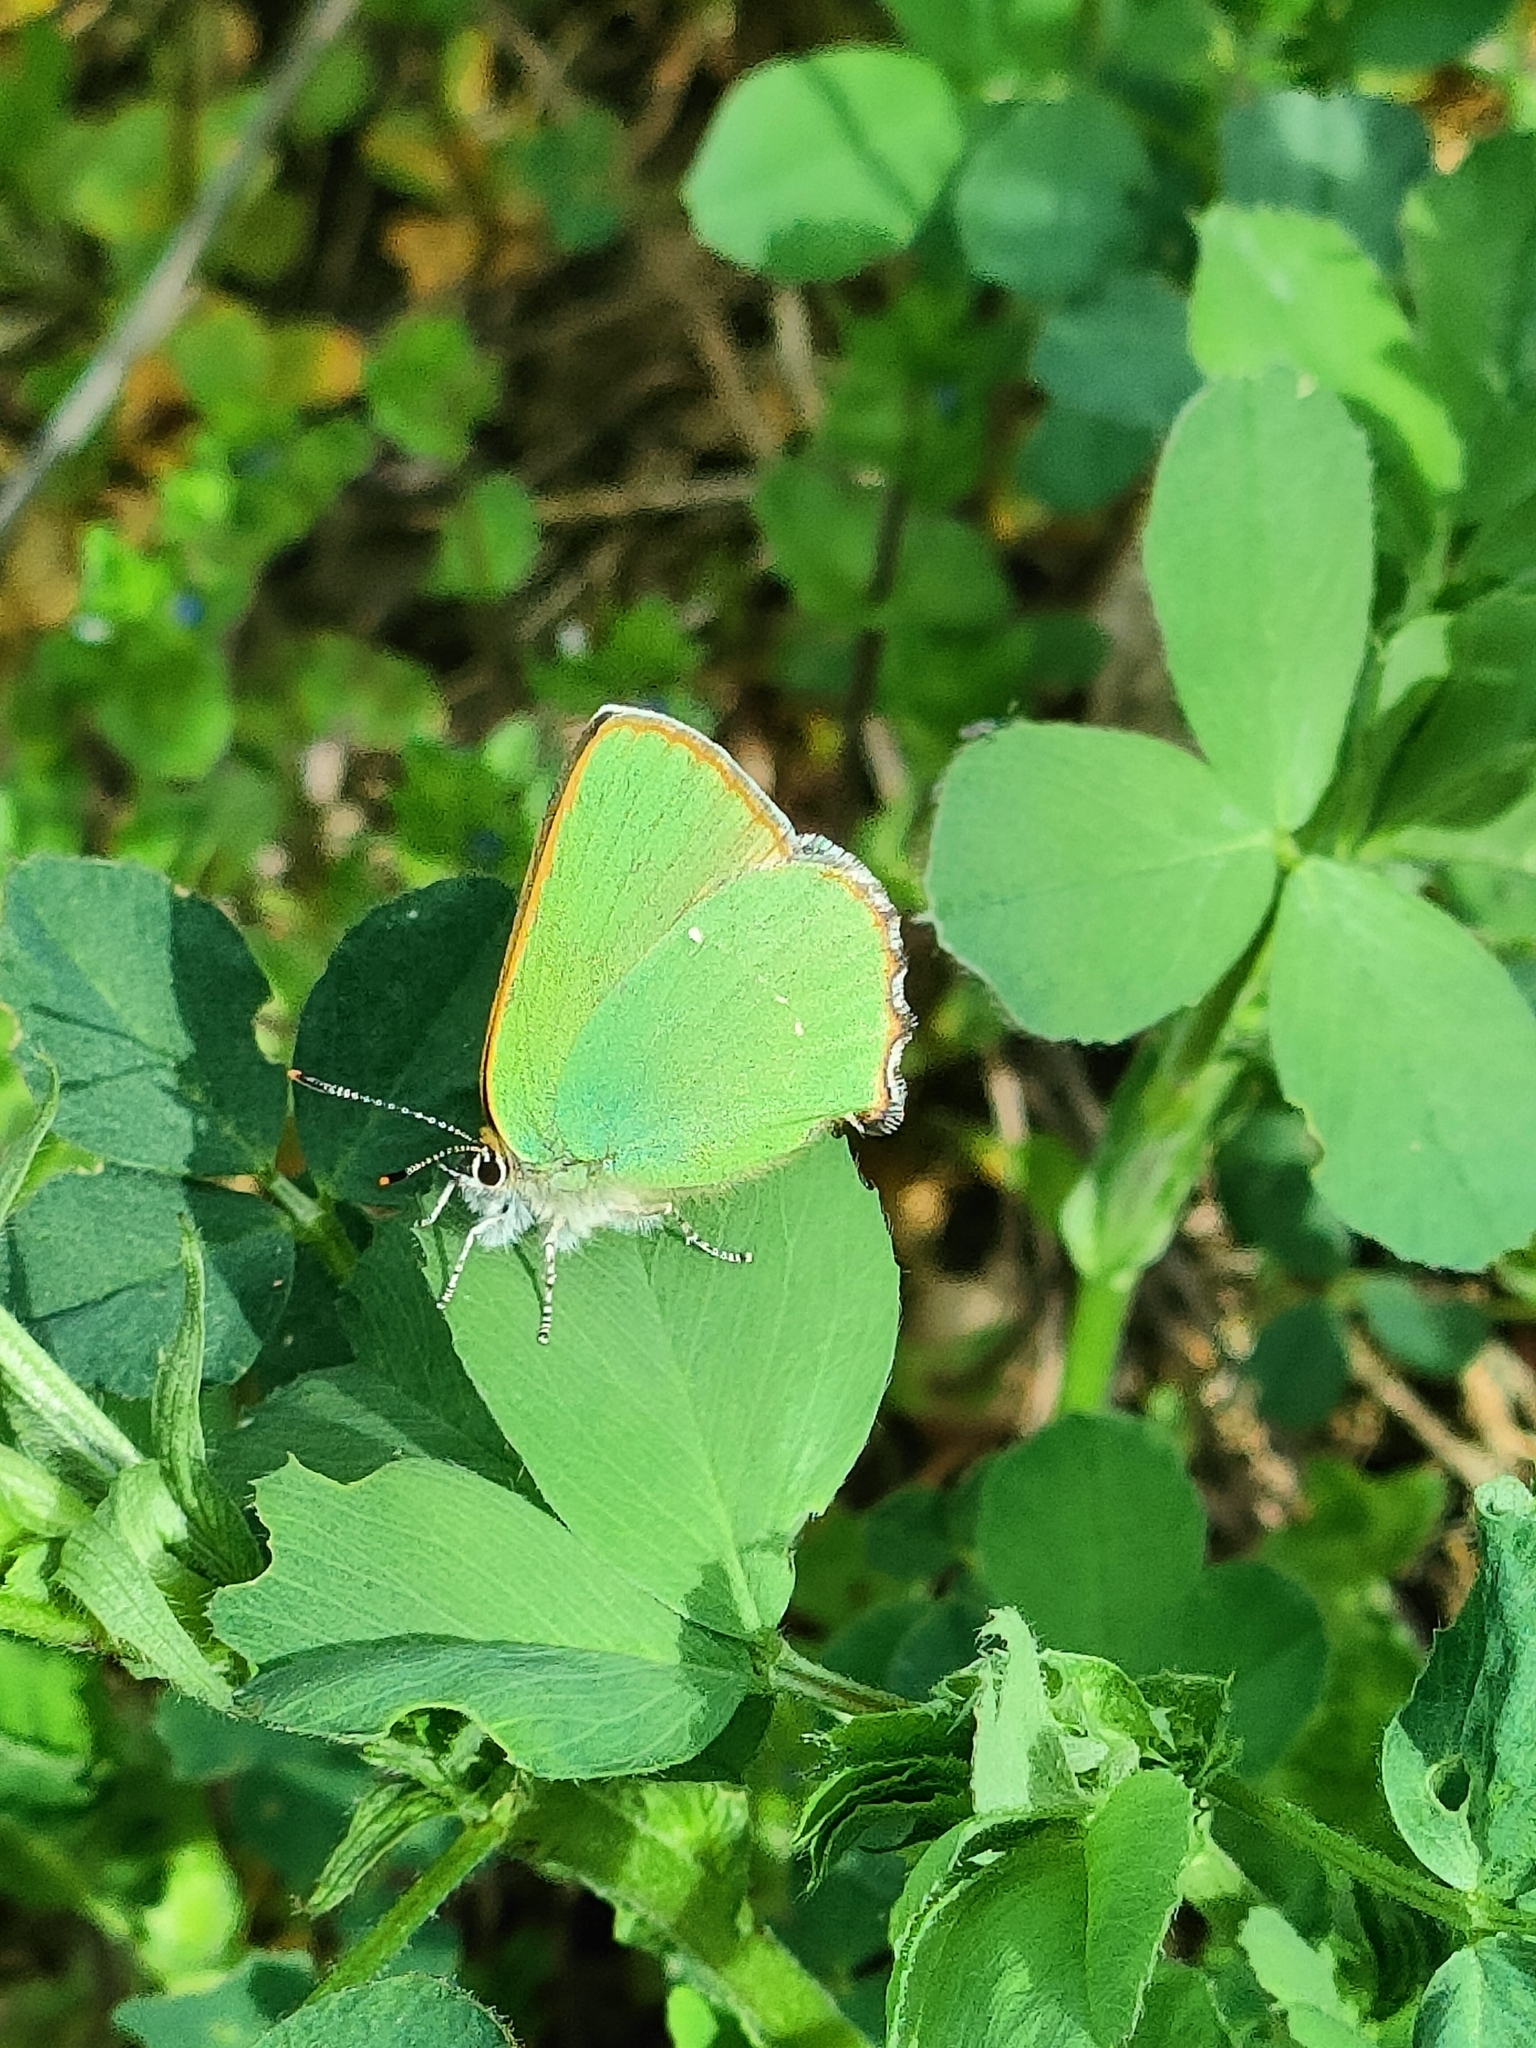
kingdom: Animalia
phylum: Arthropoda
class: Insecta
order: Lepidoptera
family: Lycaenidae
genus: Callophrys
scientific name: Callophrys rubi
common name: Green hairstreak
